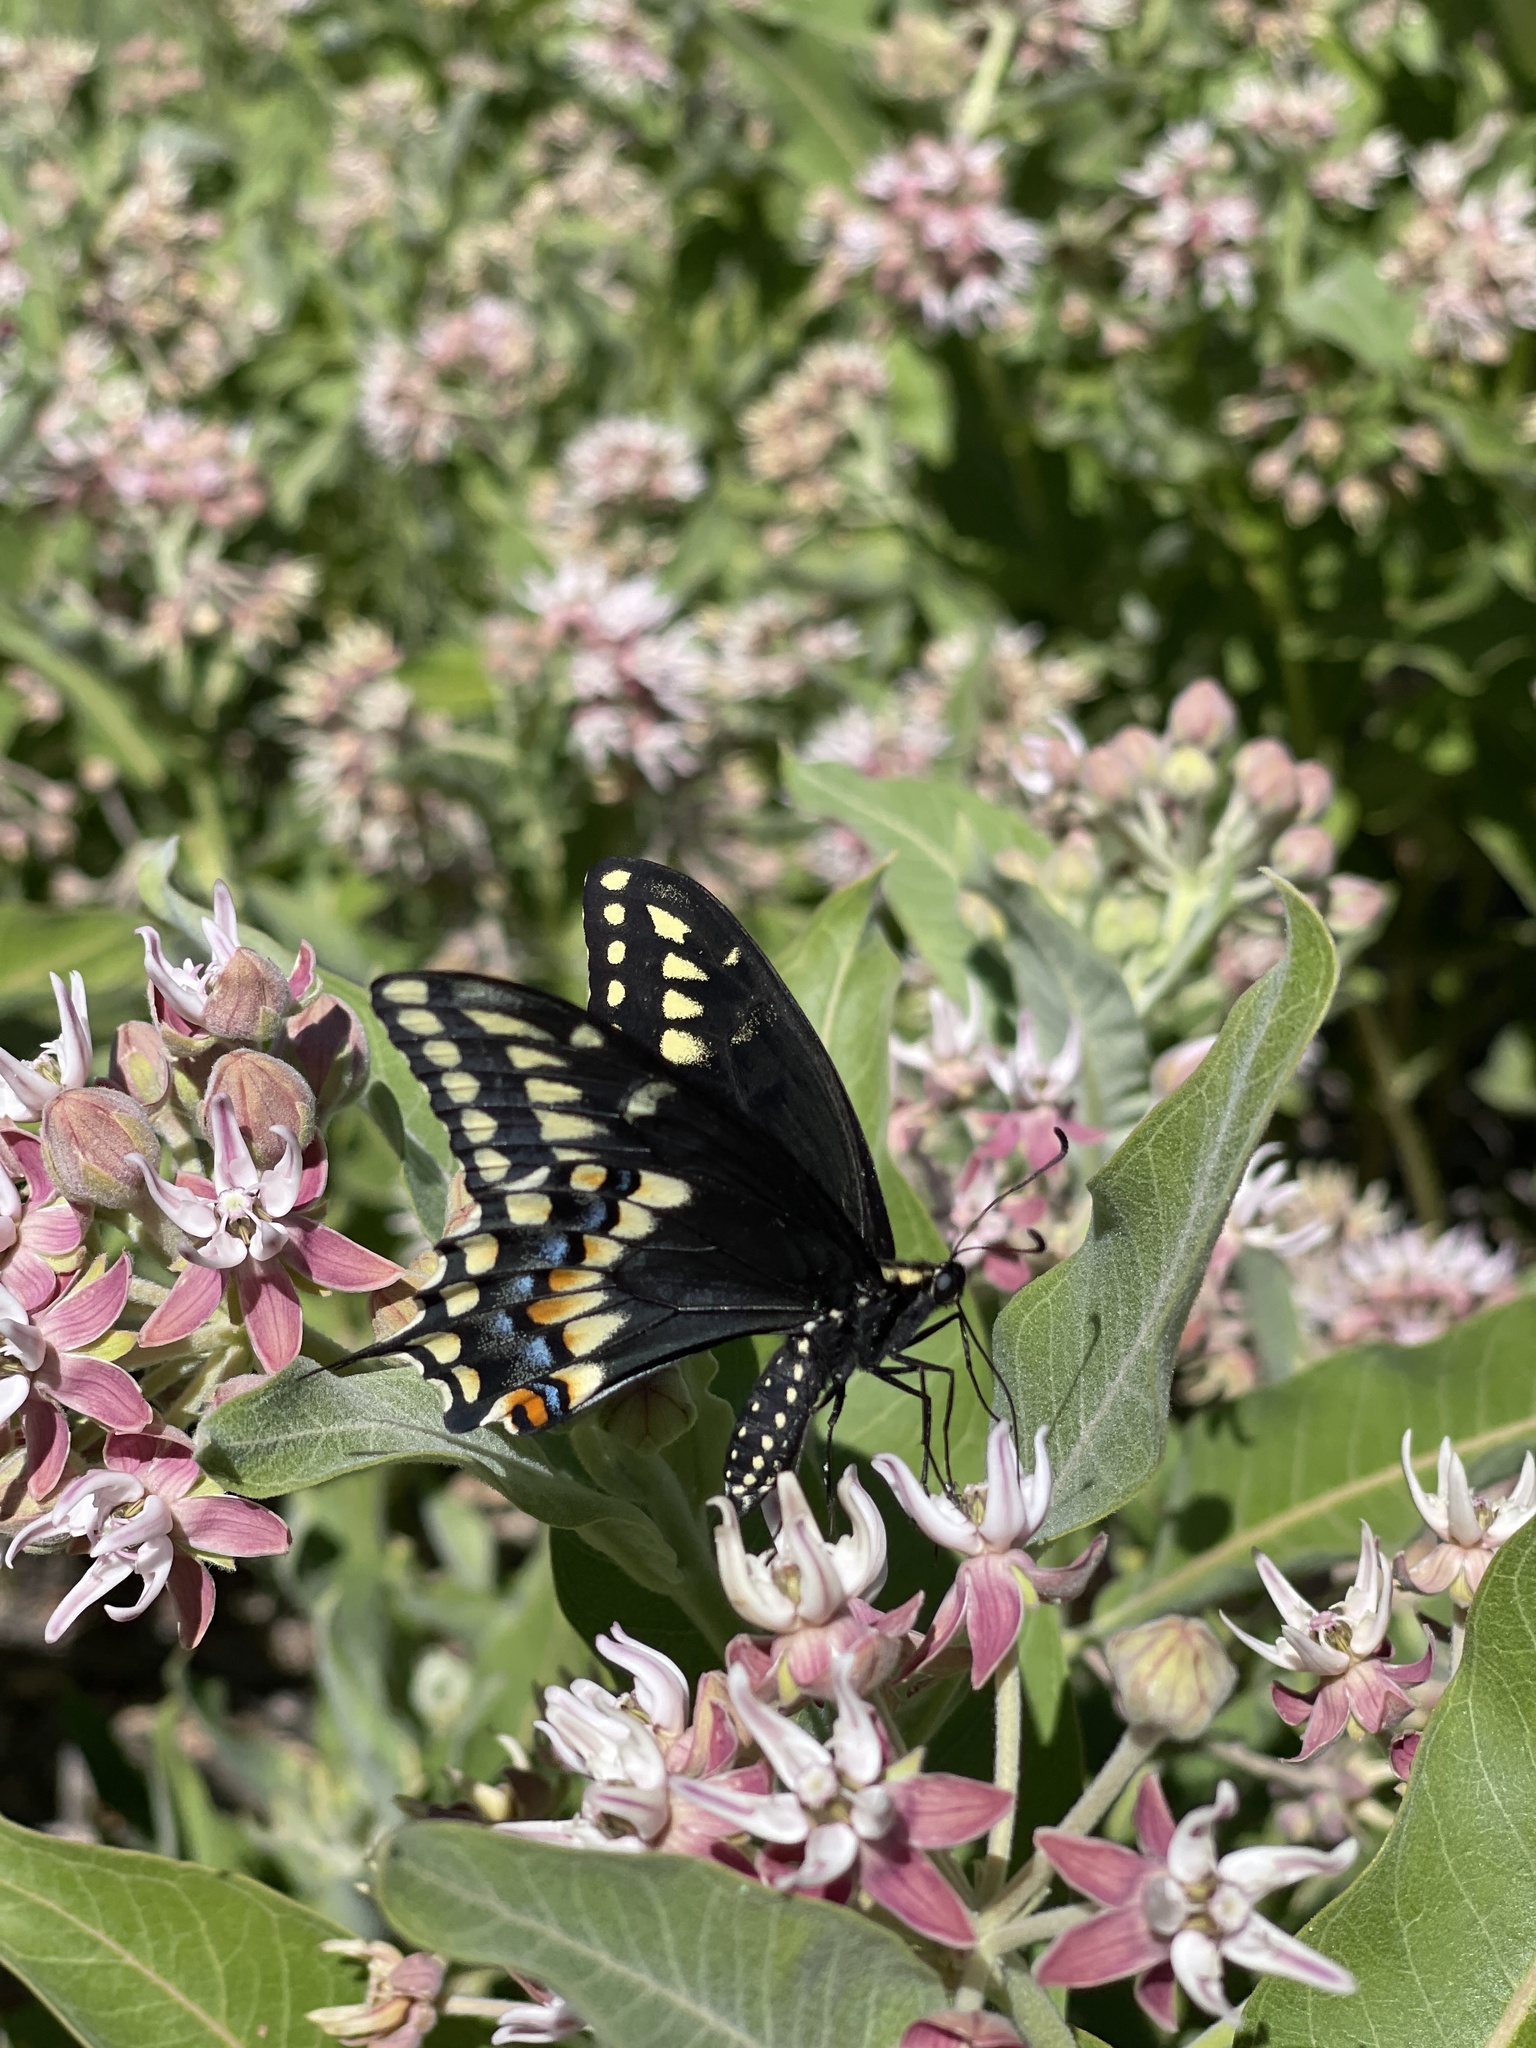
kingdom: Animalia
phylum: Arthropoda
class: Insecta
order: Lepidoptera
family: Papilionidae
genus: Papilio
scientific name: Papilio
